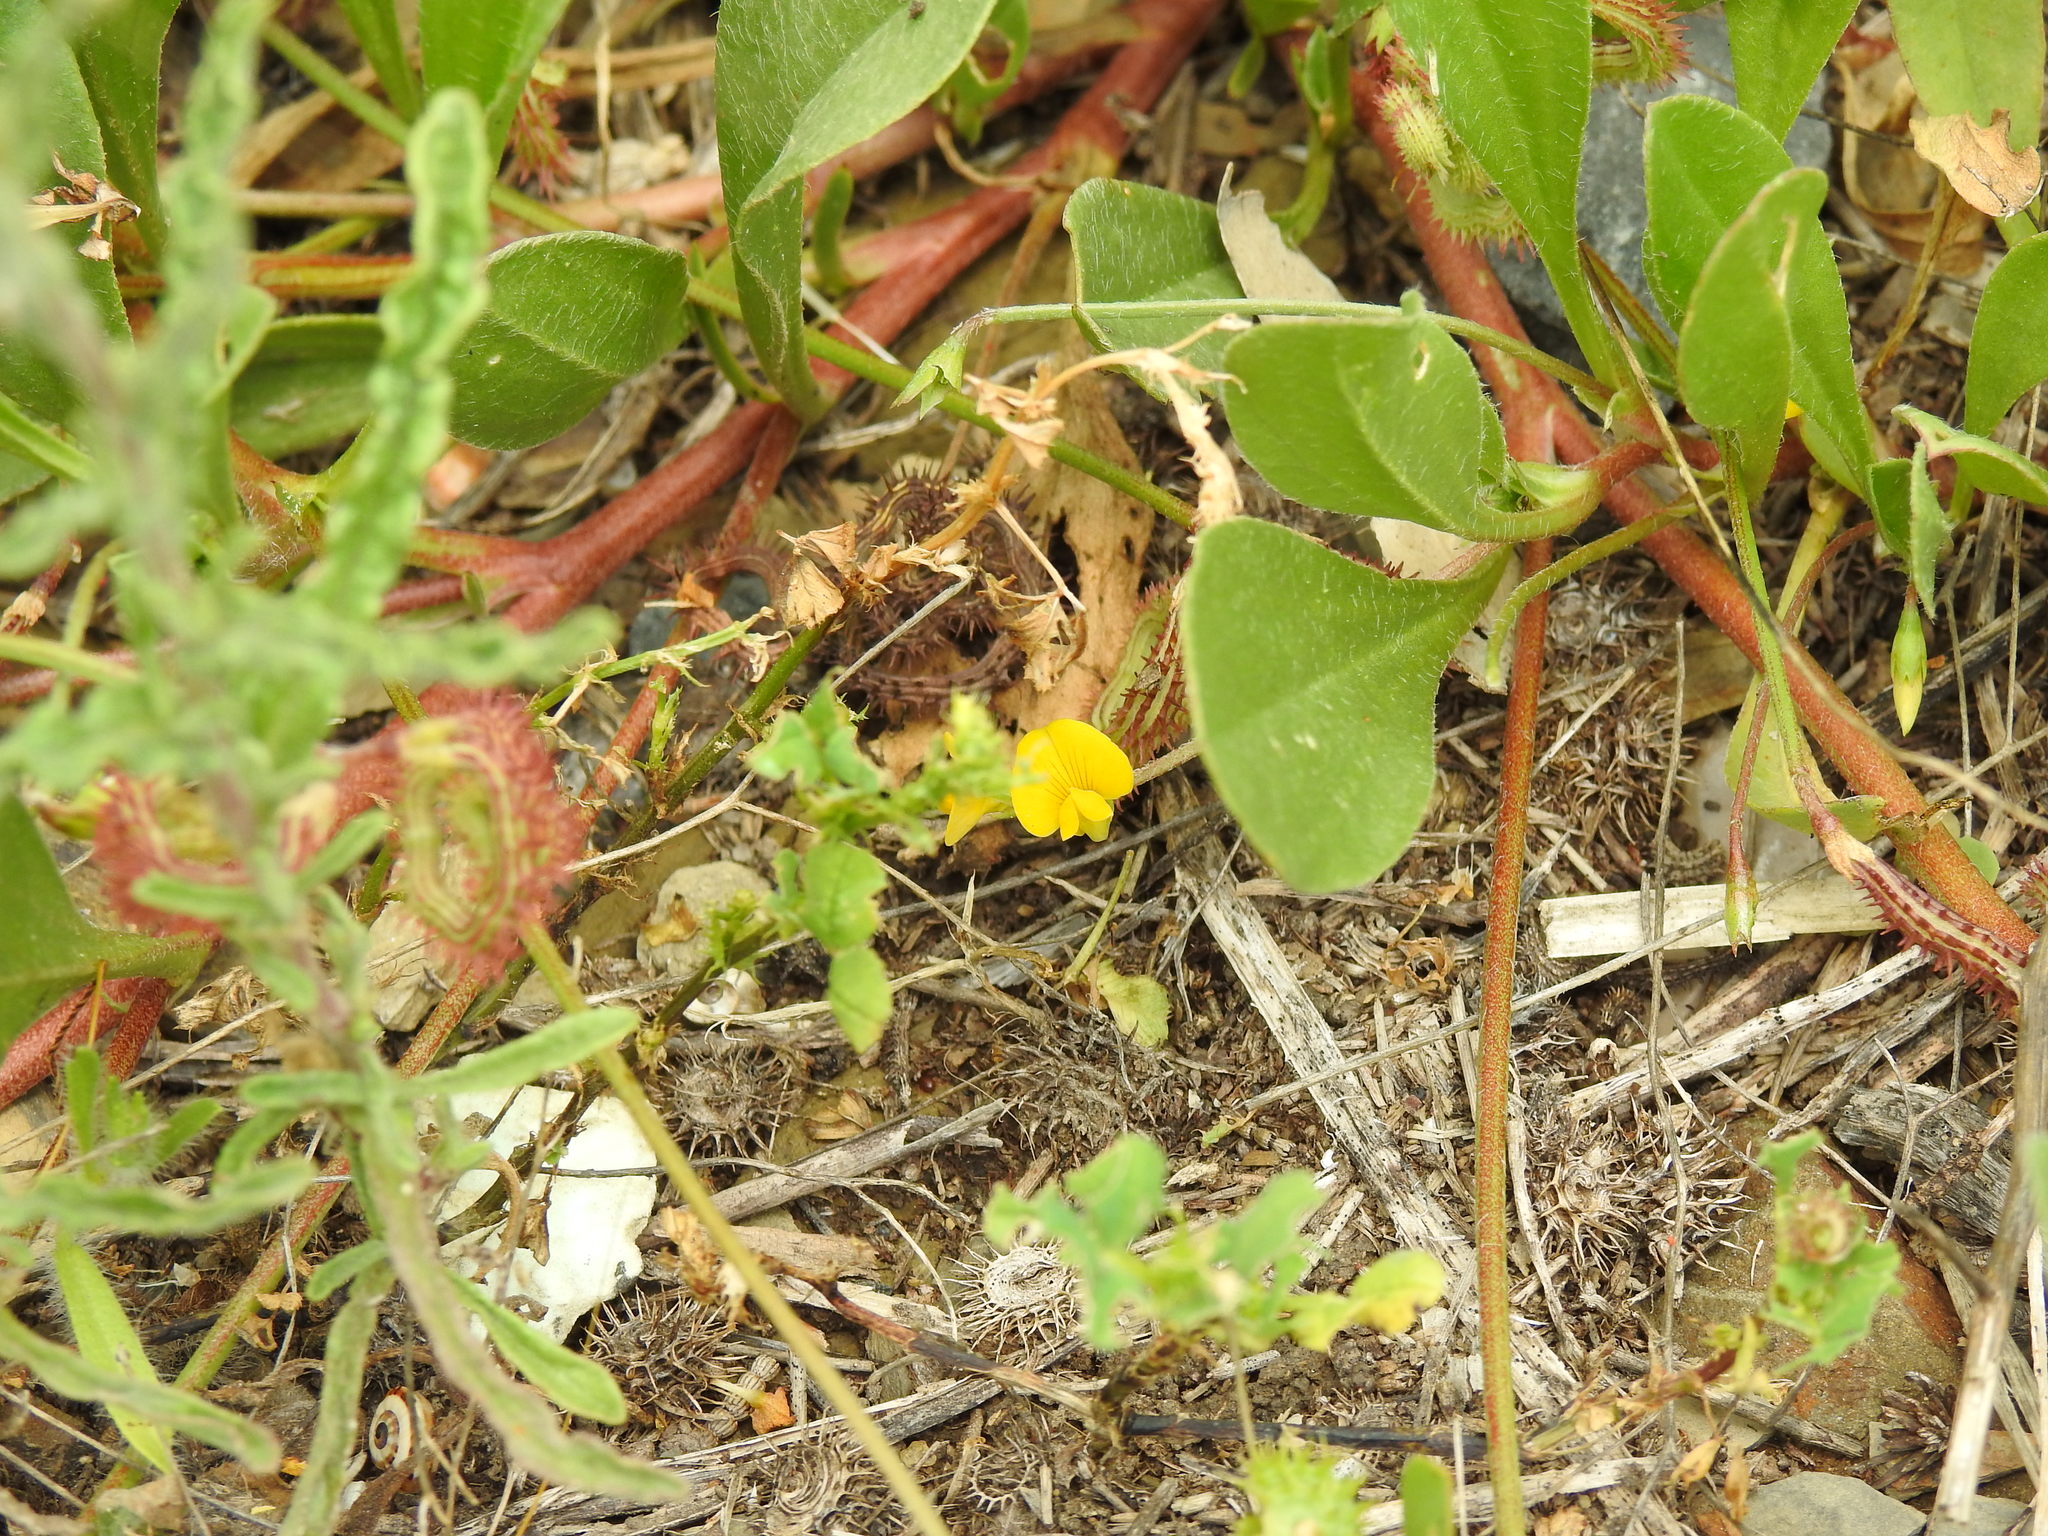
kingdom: Plantae
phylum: Tracheophyta
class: Magnoliopsida
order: Fabales
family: Fabaceae
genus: Scorpiurus
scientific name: Scorpiurus muricatus
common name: Caterpillar-plant
